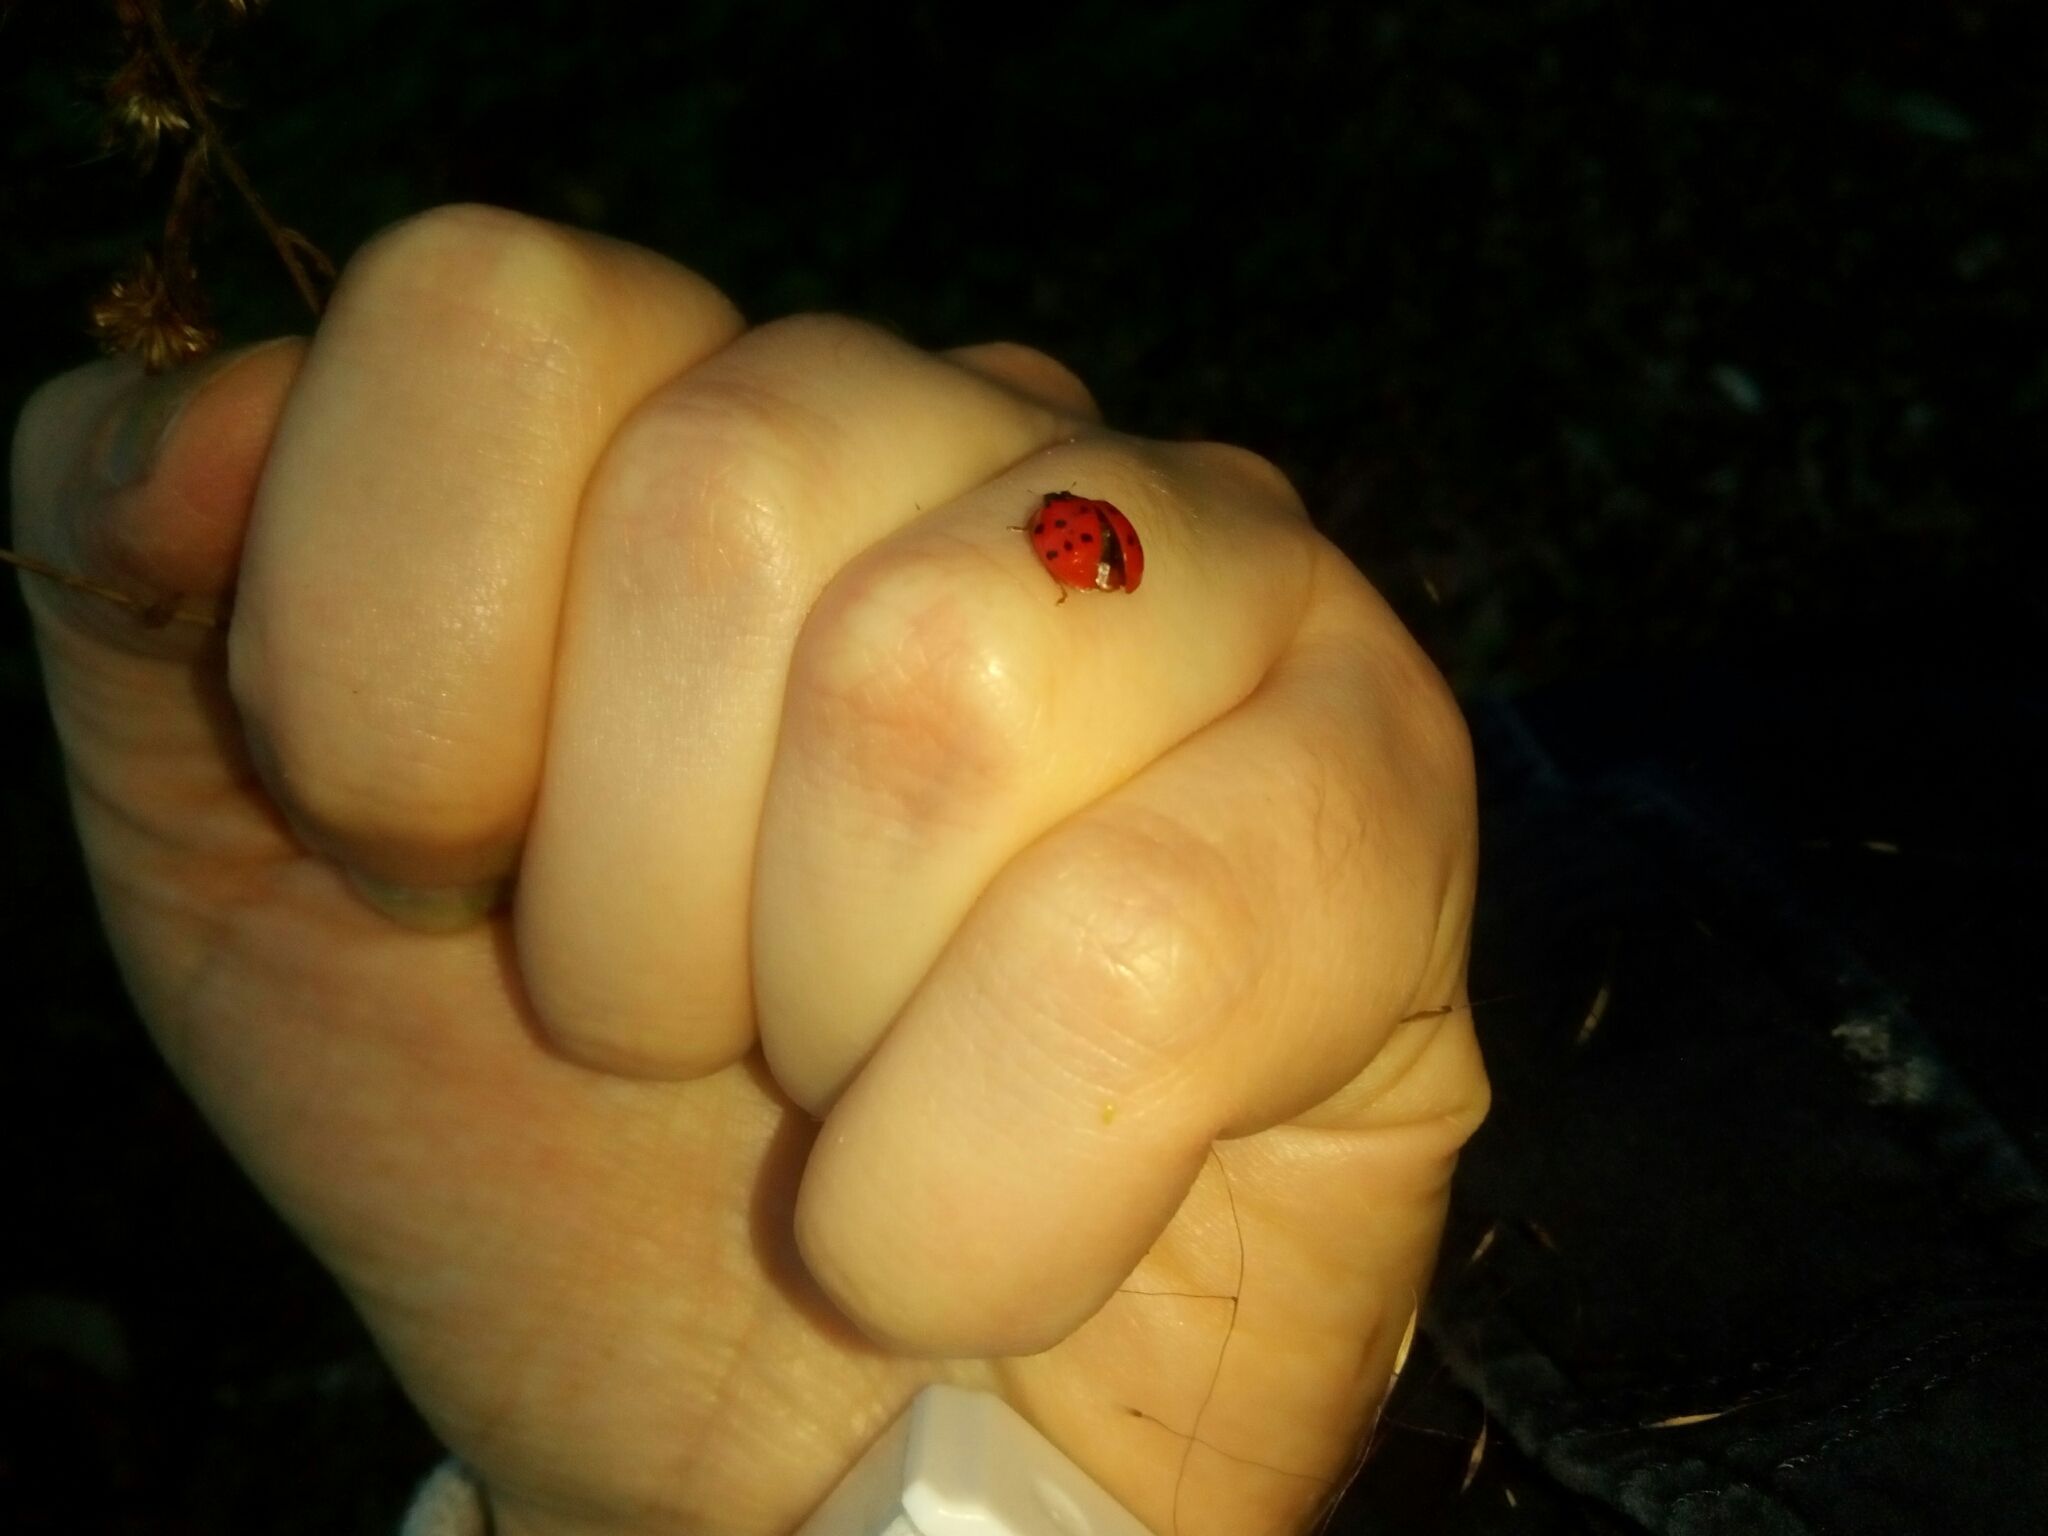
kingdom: Animalia
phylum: Arthropoda
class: Insecta
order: Coleoptera
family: Coccinellidae
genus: Harmonia
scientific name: Harmonia axyridis
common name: Harlequin ladybird
